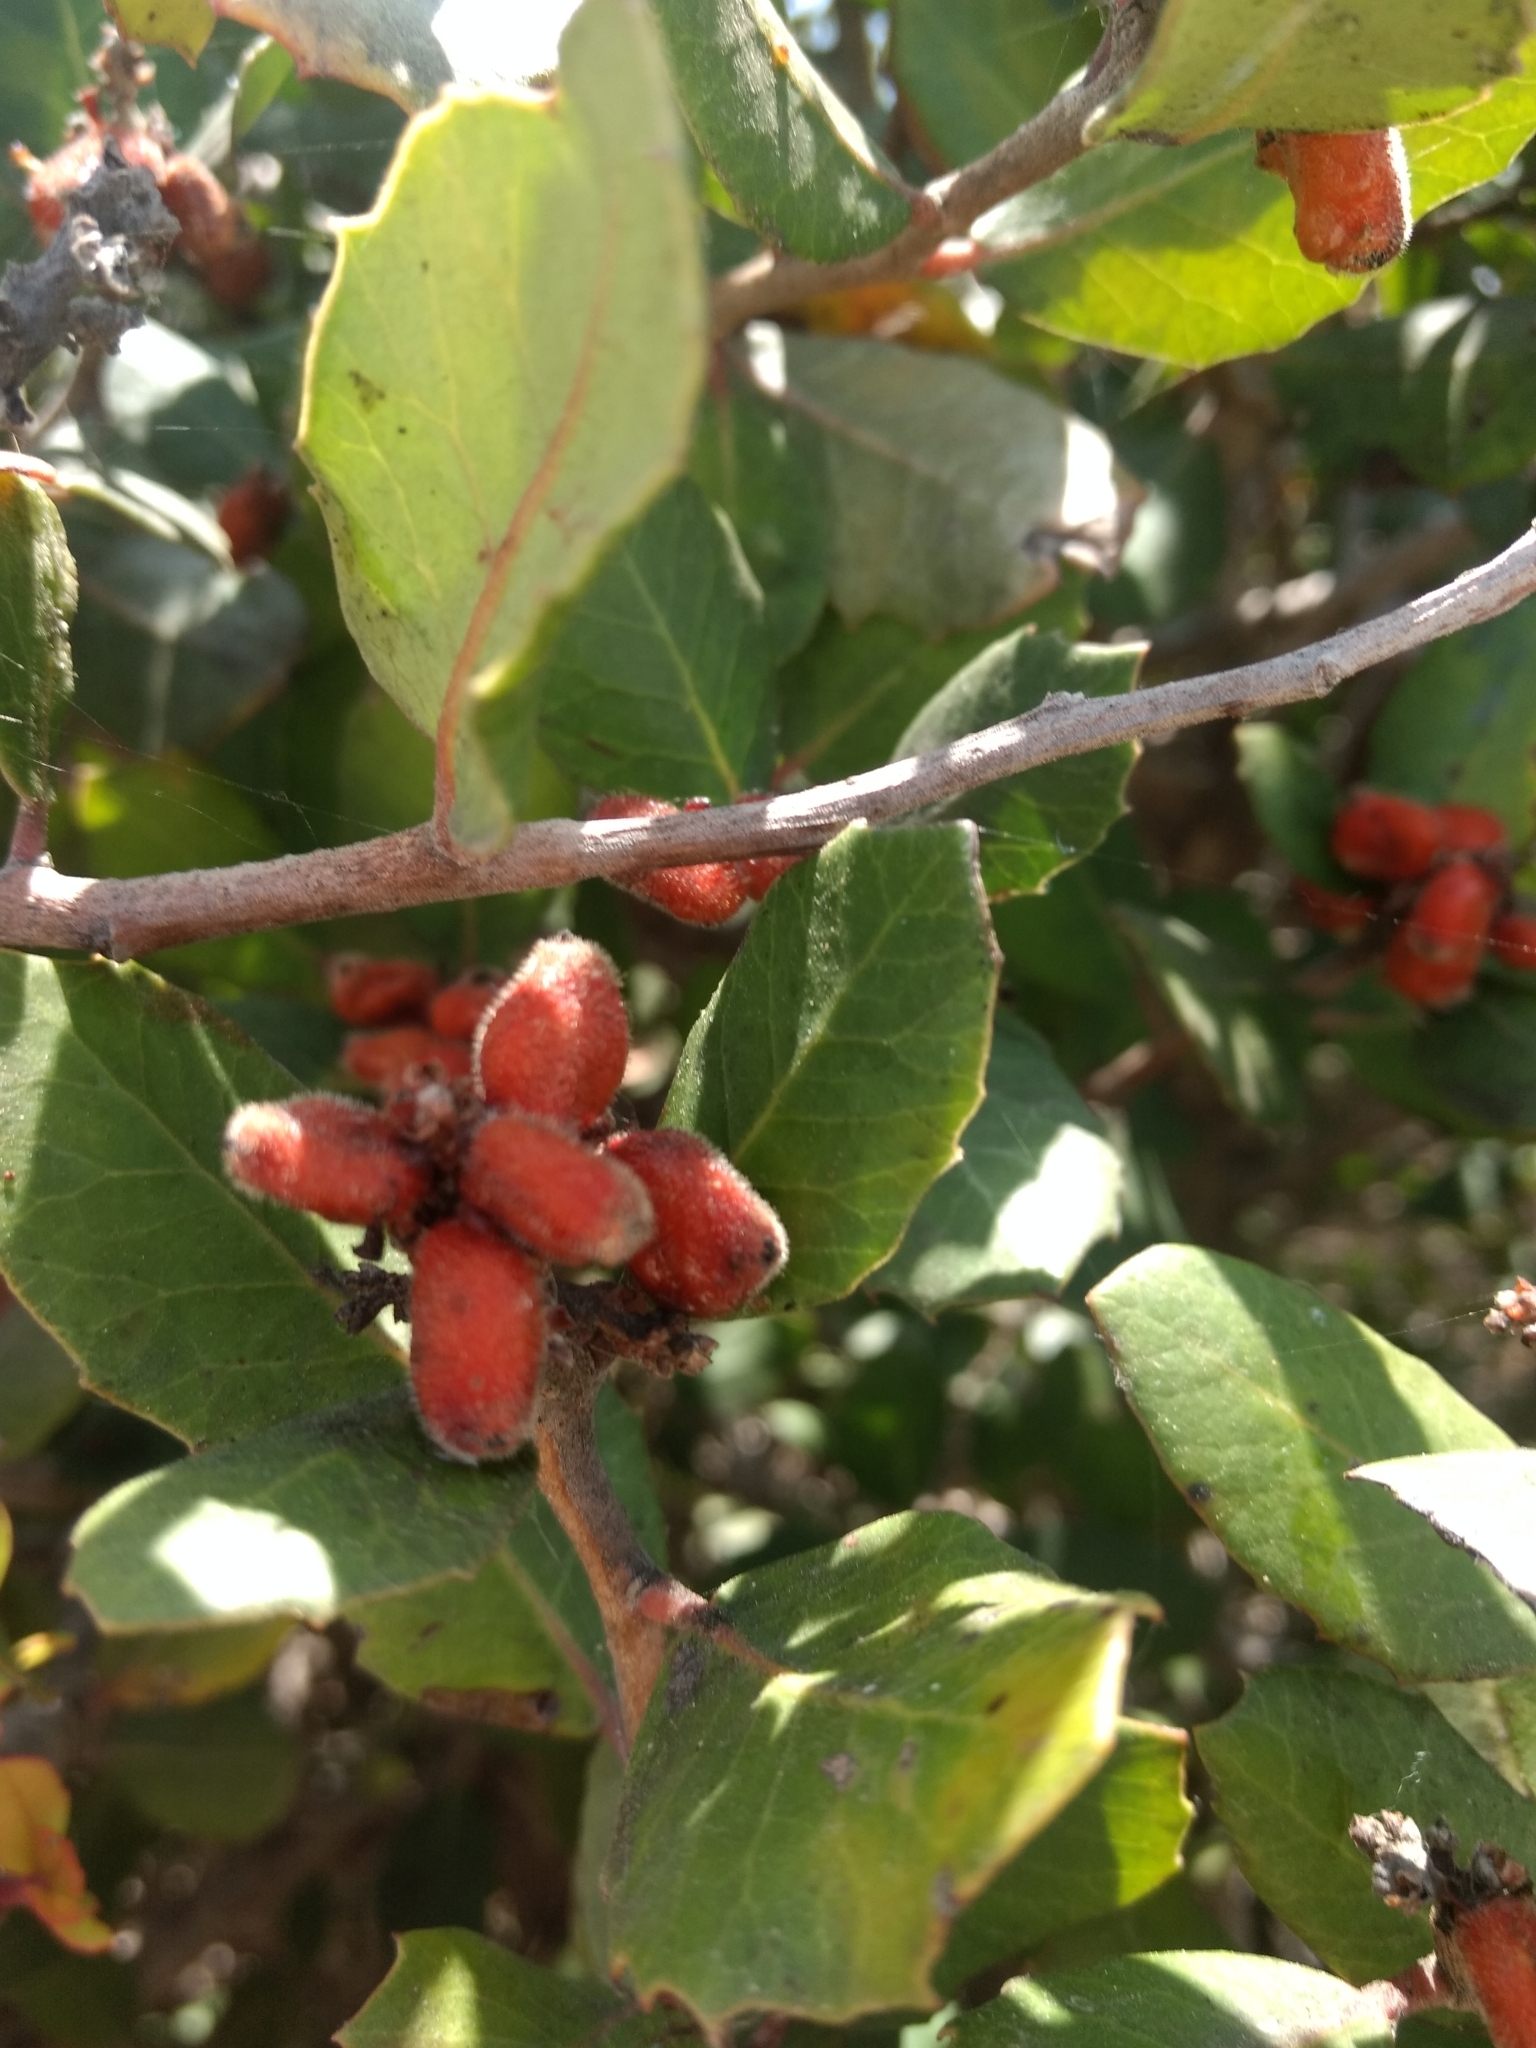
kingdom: Plantae
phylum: Tracheophyta
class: Magnoliopsida
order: Sapindales
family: Anacardiaceae
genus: Rhus
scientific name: Rhus integrifolia
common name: Lemonade sumac
